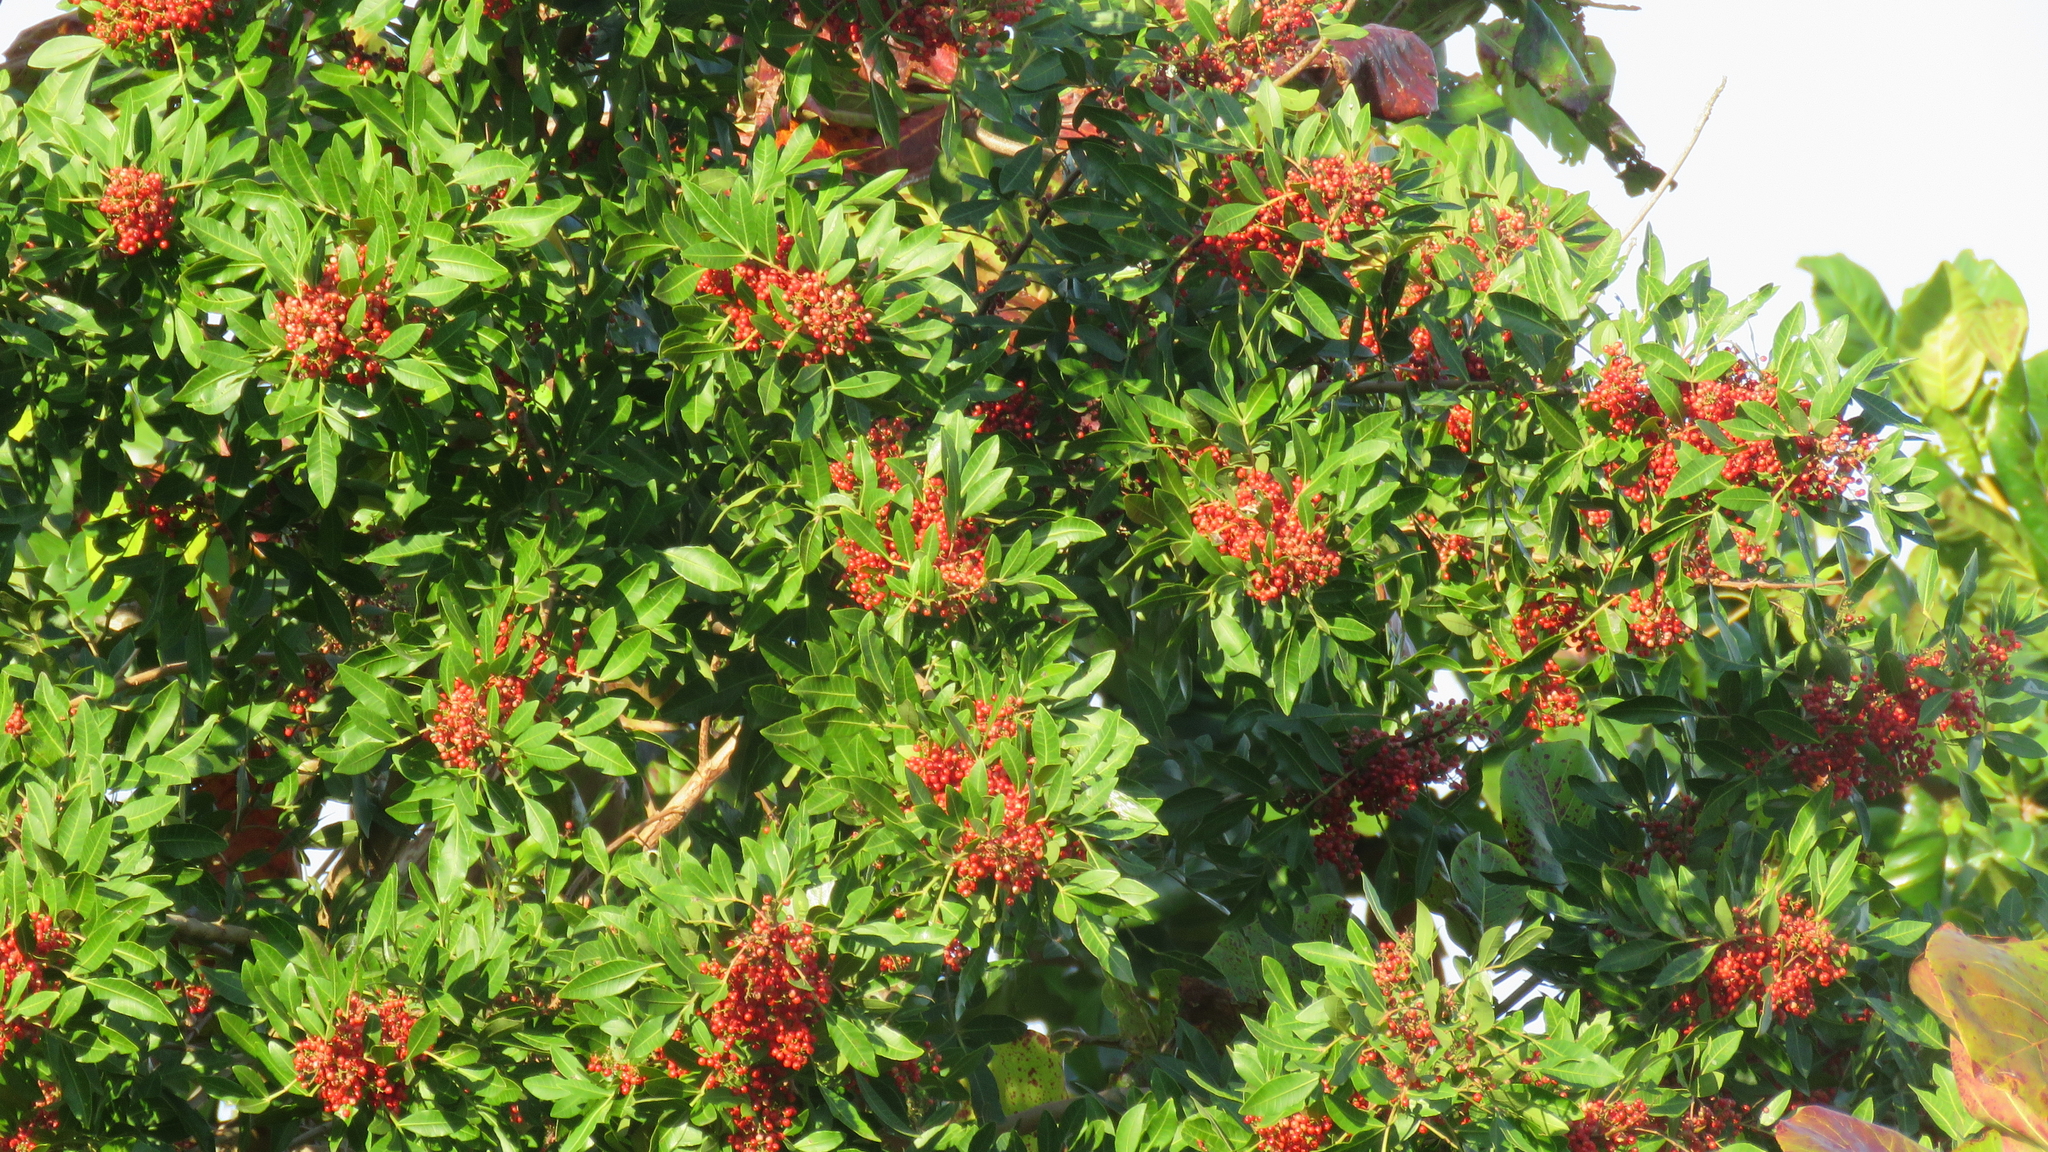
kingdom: Plantae
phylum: Tracheophyta
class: Magnoliopsida
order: Sapindales
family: Anacardiaceae
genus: Schinus
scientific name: Schinus terebinthifolia
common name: Brazilian peppertree
